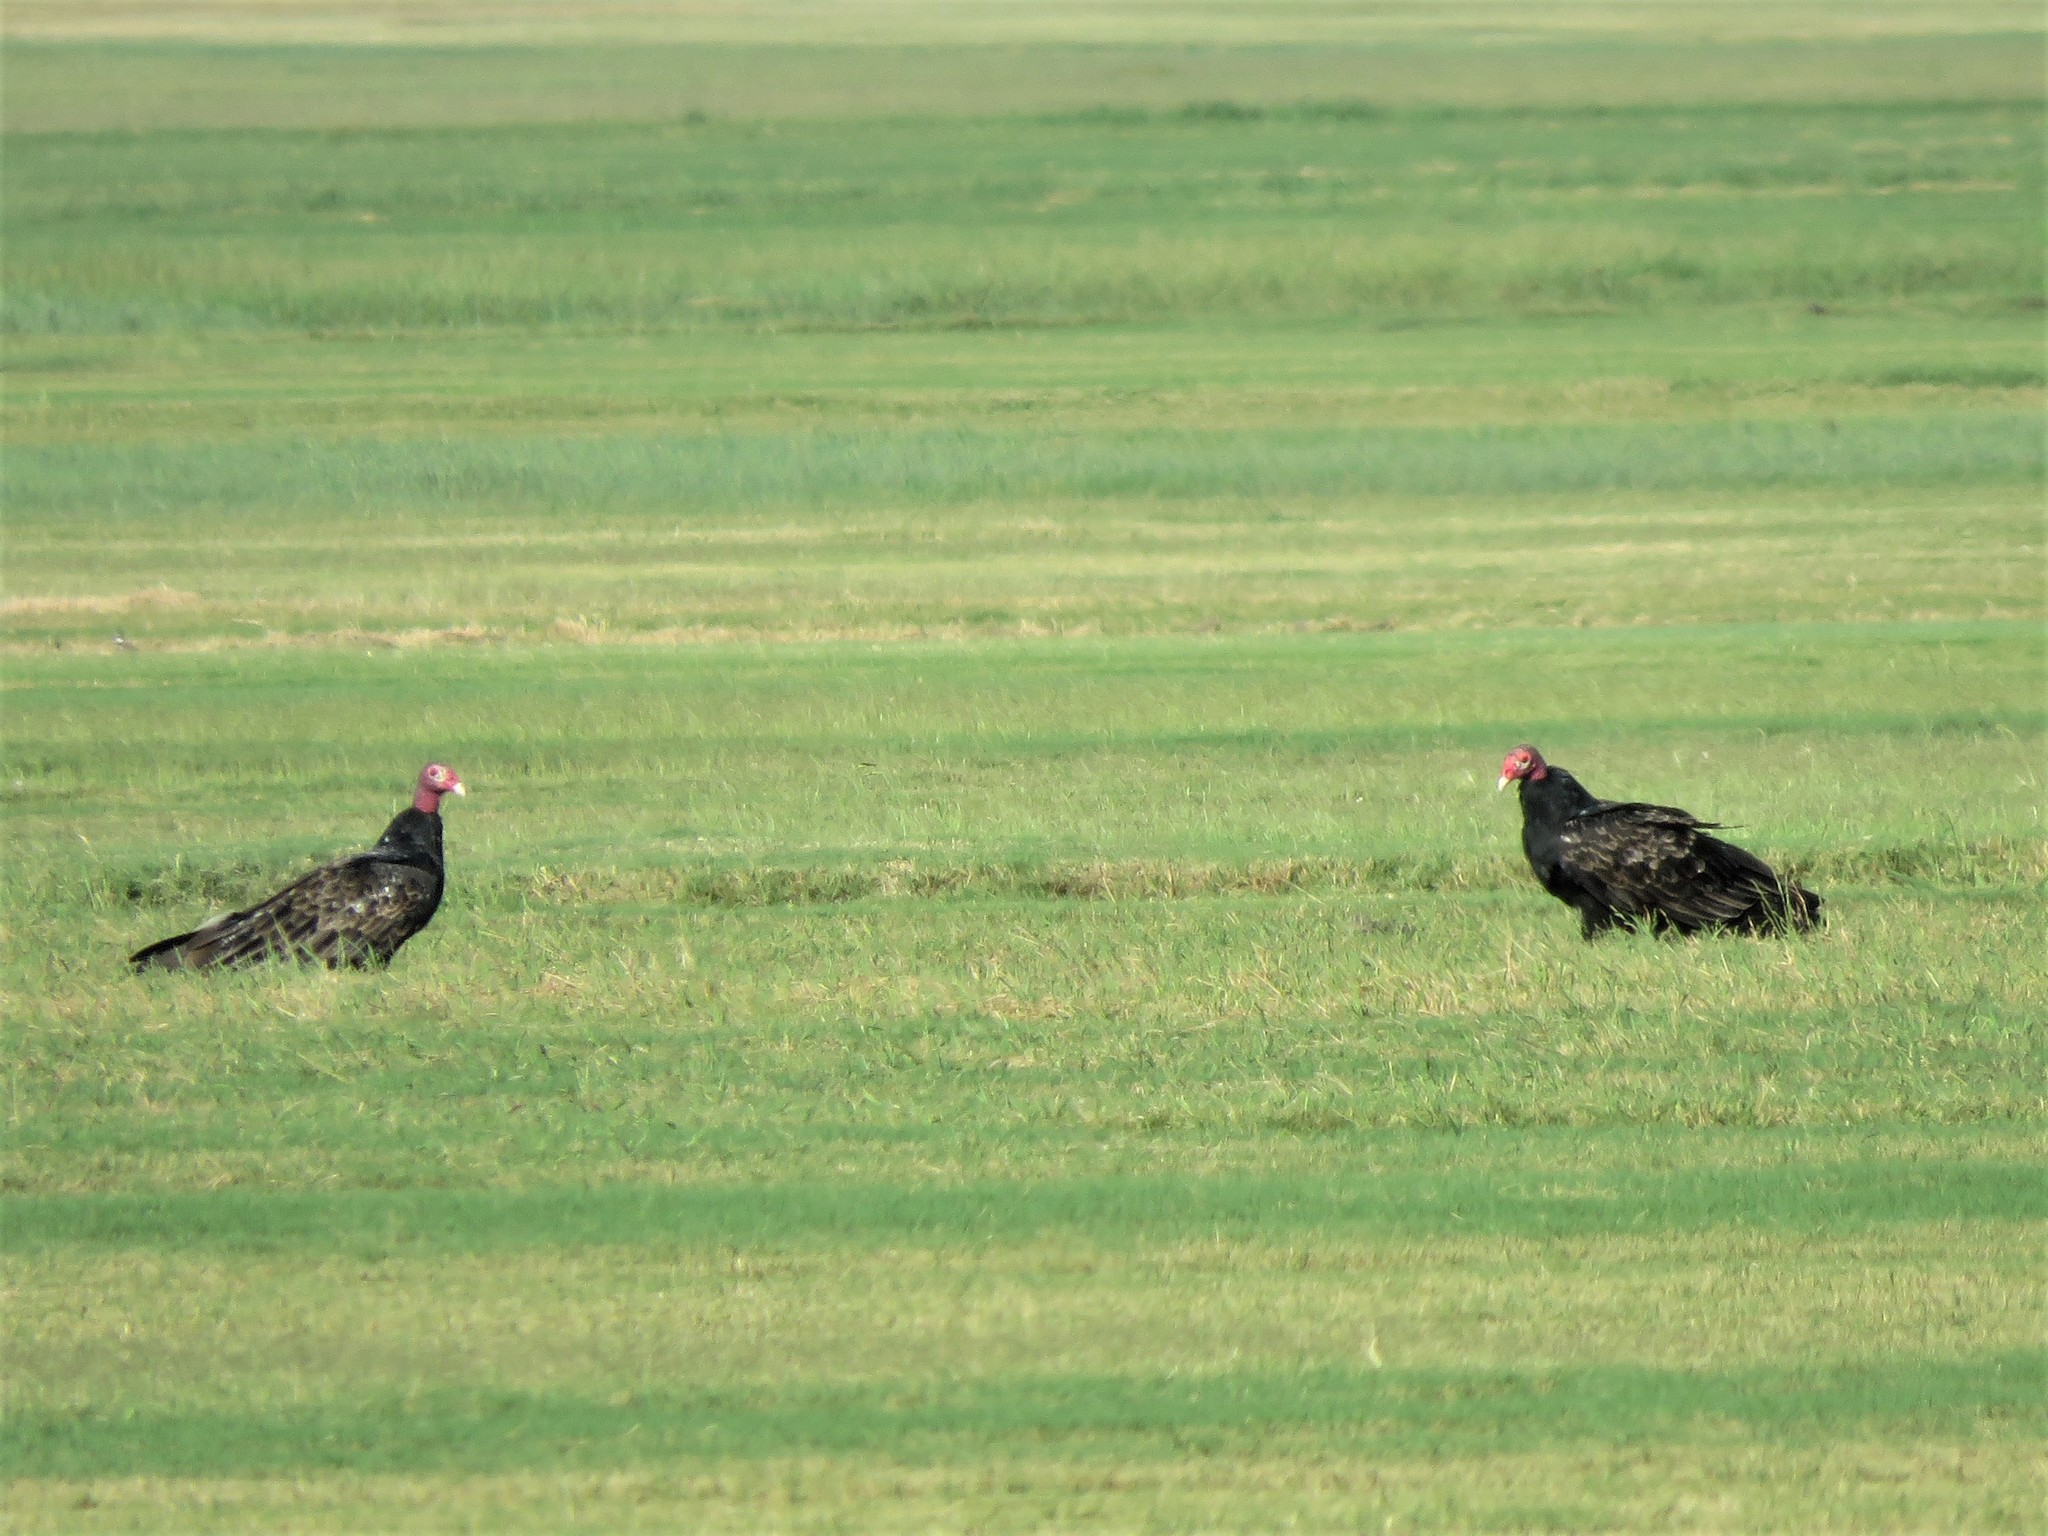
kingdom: Animalia
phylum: Chordata
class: Aves
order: Accipitriformes
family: Cathartidae
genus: Cathartes
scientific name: Cathartes aura
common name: Turkey vulture
